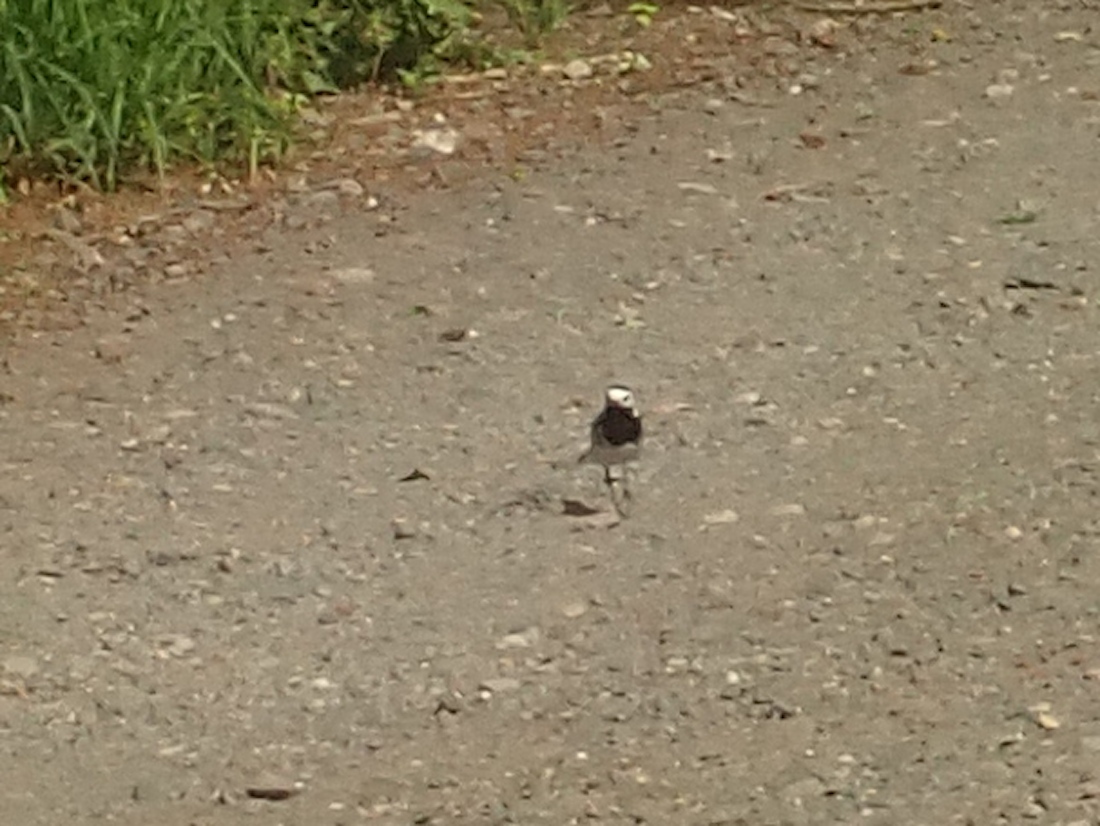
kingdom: Animalia
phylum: Chordata
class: Aves
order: Passeriformes
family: Motacillidae
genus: Motacilla
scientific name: Motacilla alba
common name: White wagtail
